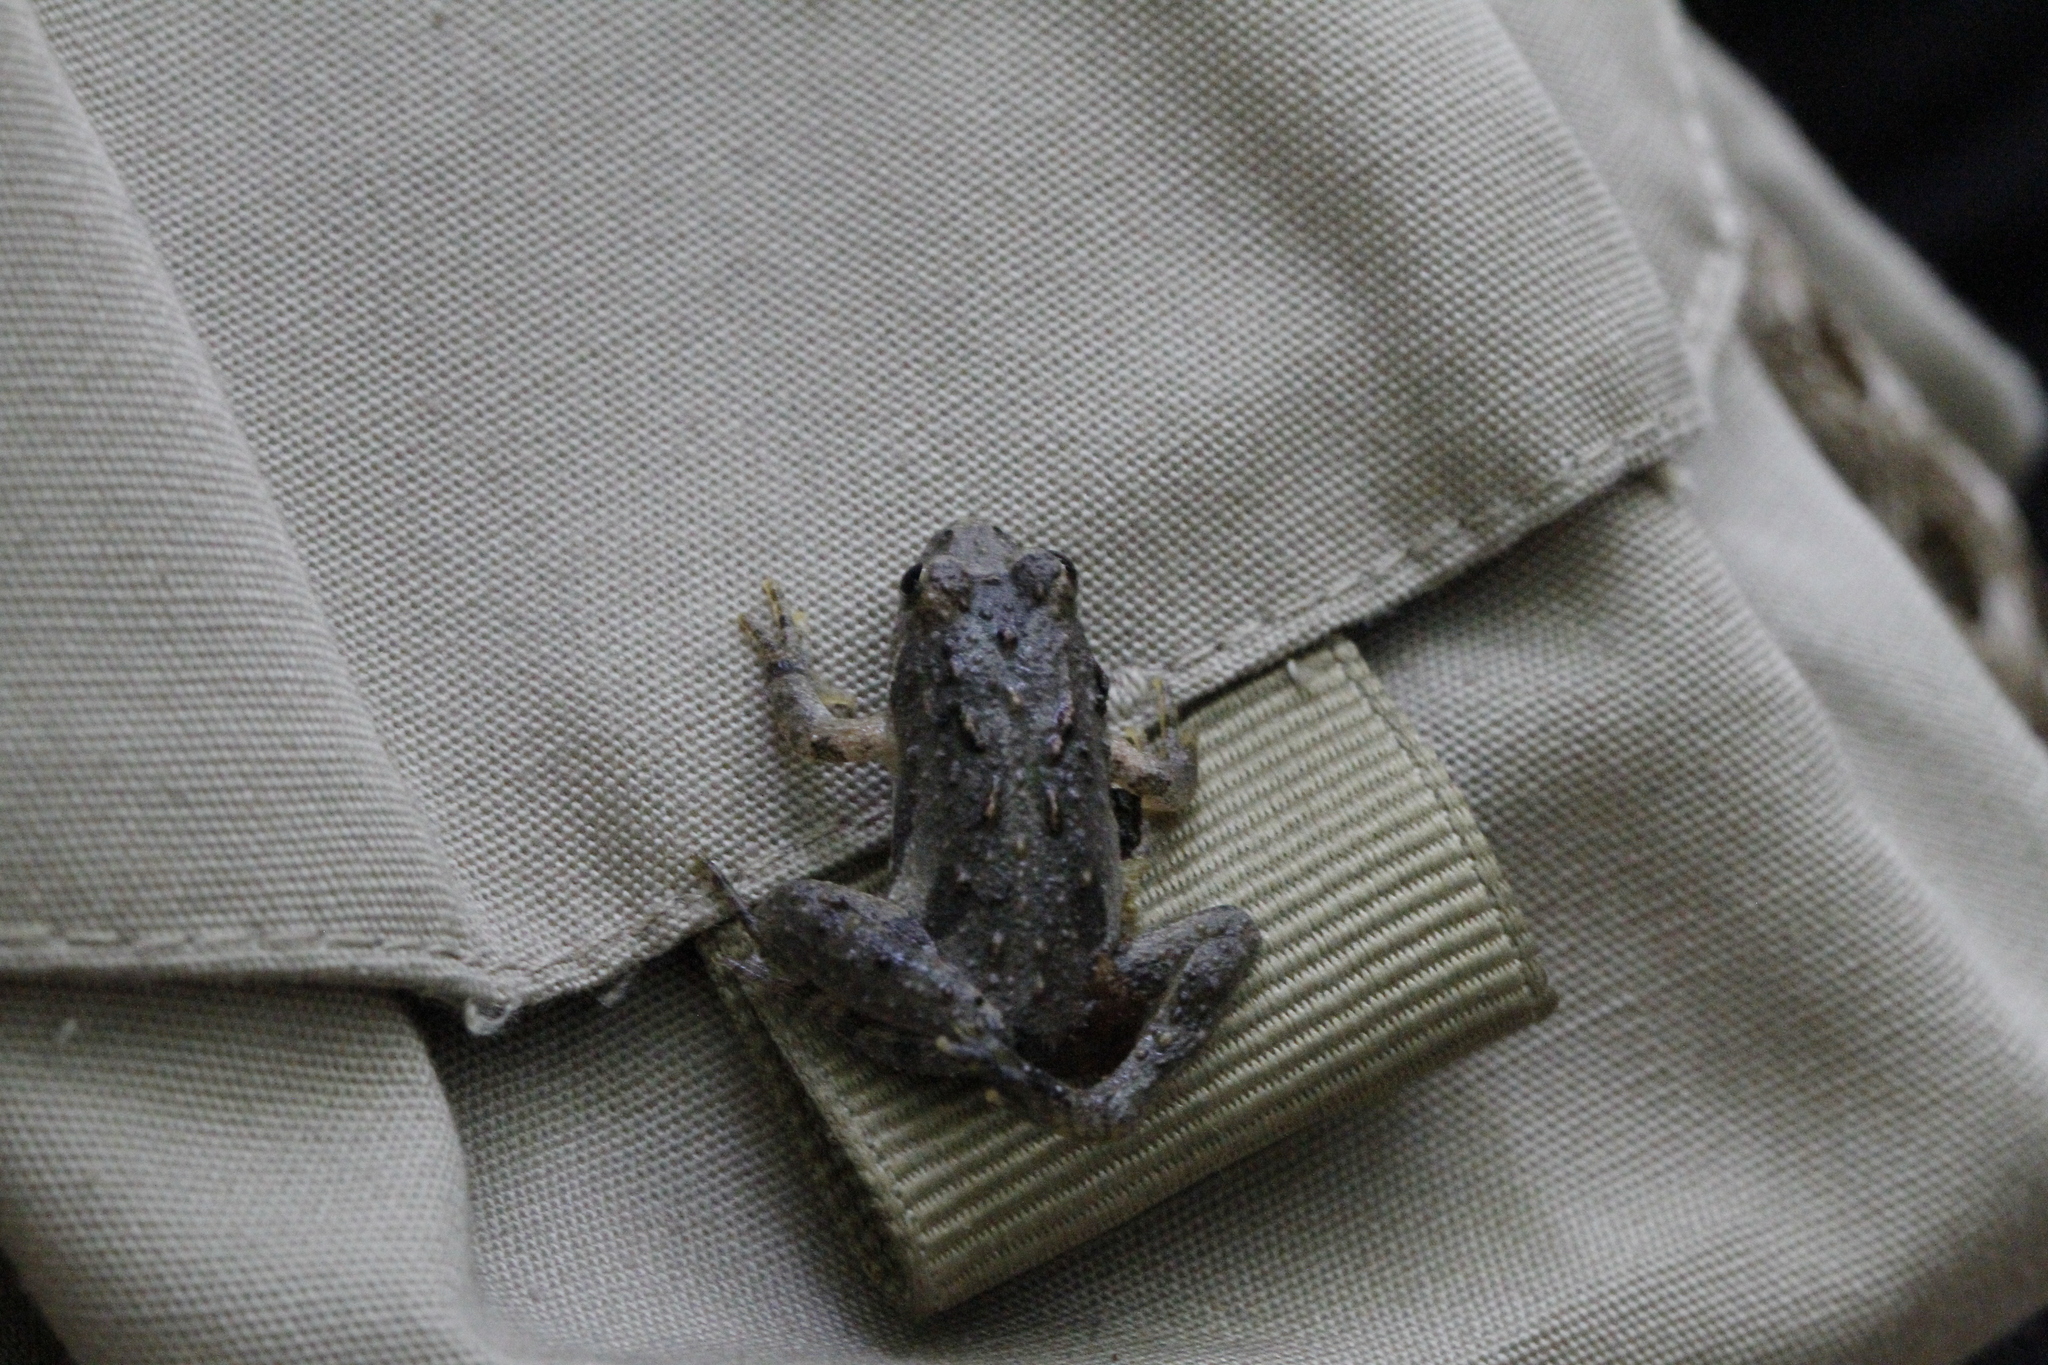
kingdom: Animalia
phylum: Chordata
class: Amphibia
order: Anura
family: Hylidae
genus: Acris
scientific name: Acris crepitans
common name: Northern cricket frog
